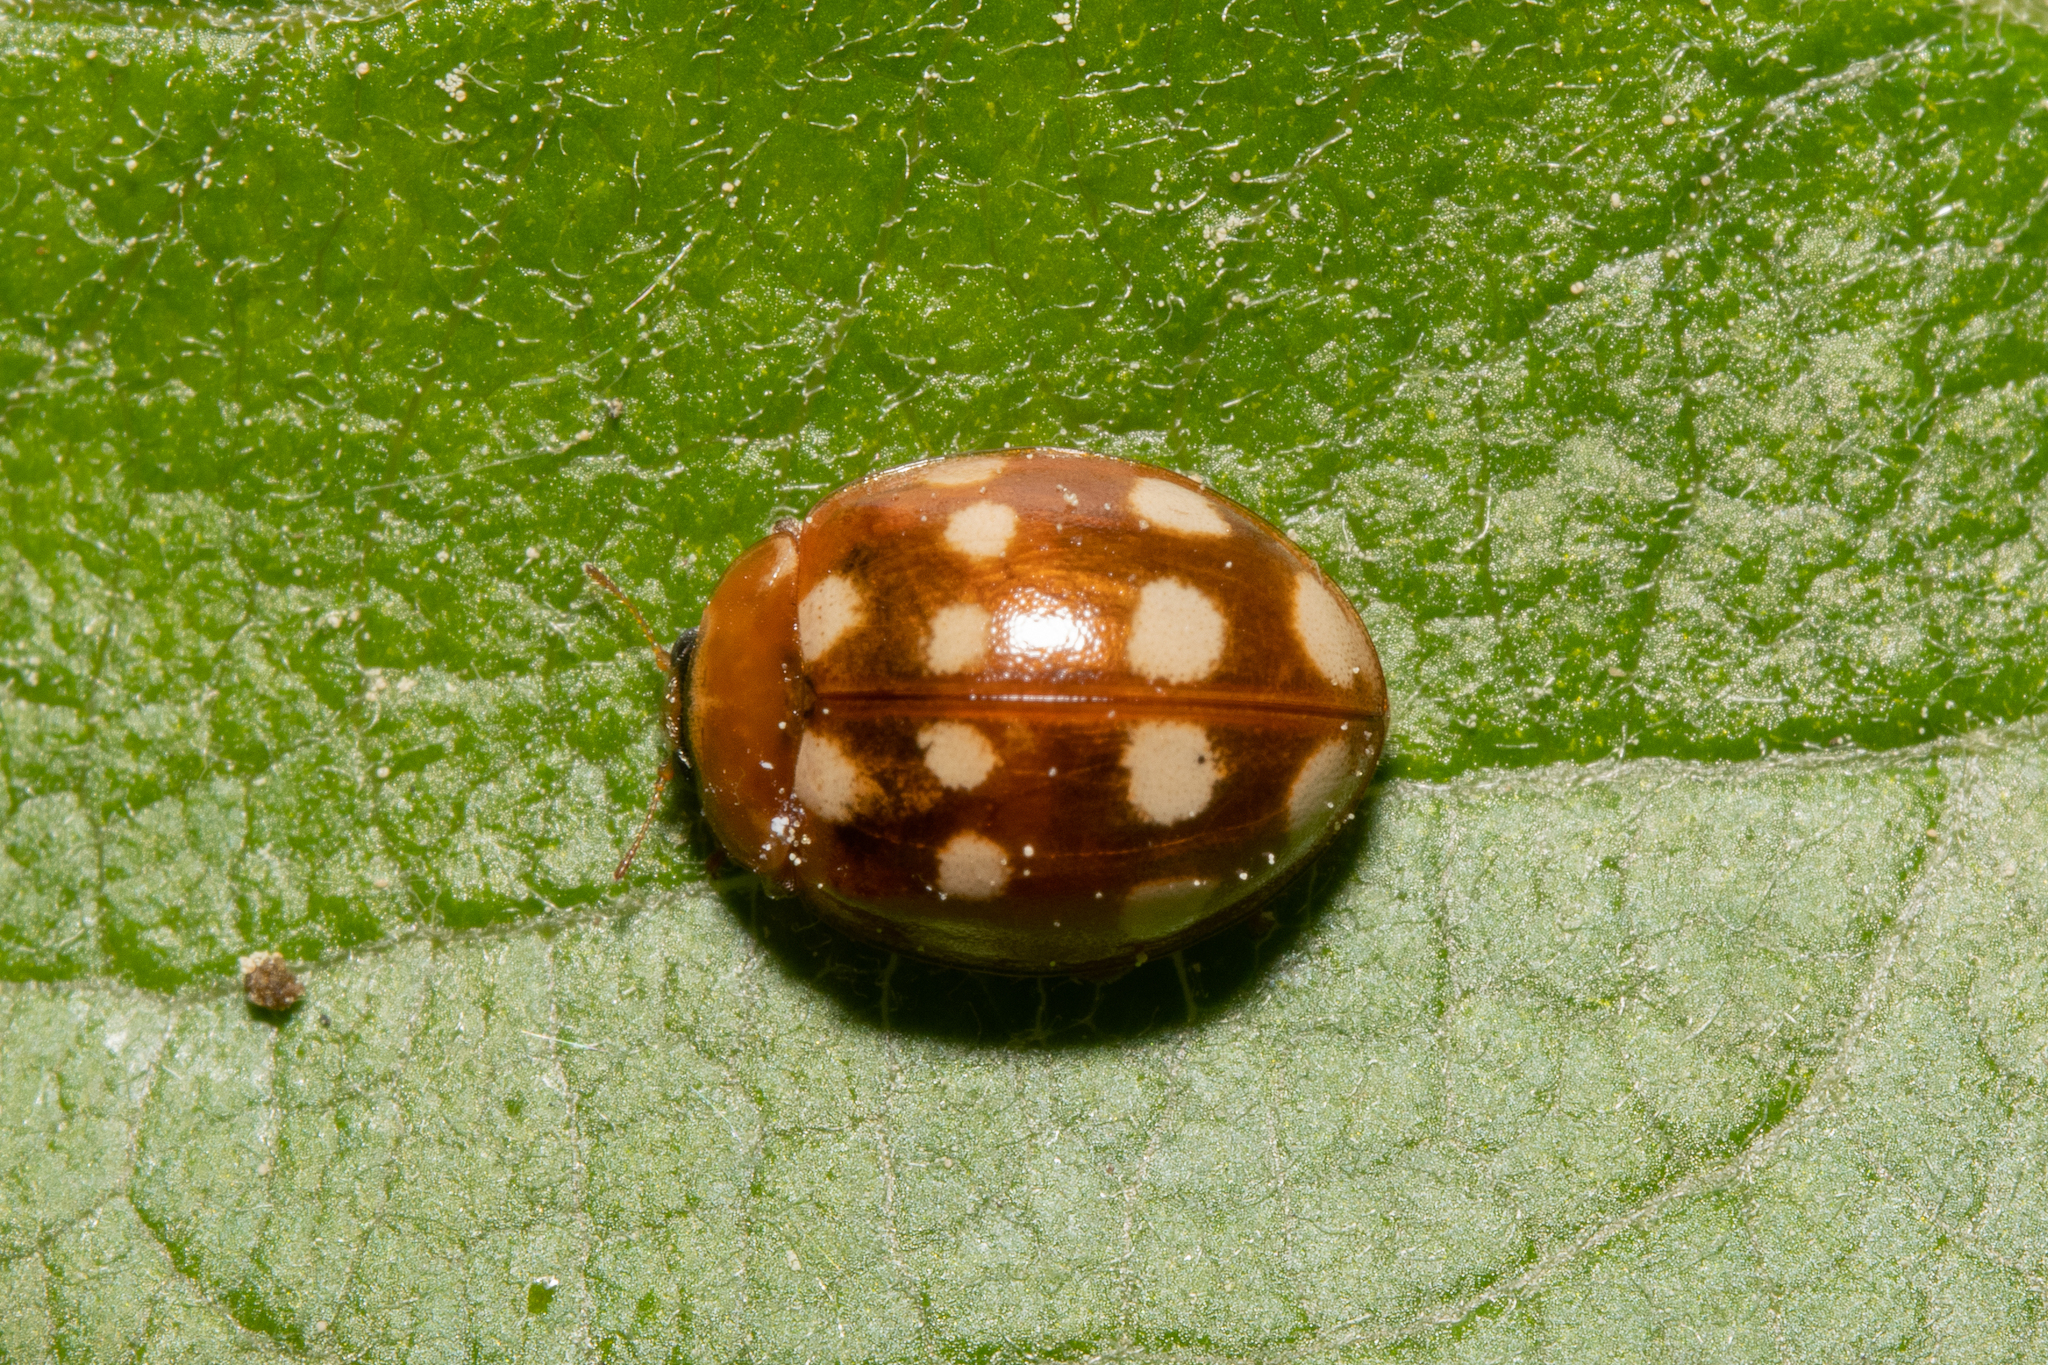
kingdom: Animalia
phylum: Arthropoda
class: Insecta
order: Coleoptera
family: Coccinellidae
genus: Calvia
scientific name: Calvia quatuordecimguttata
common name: Cream-spot ladybird
